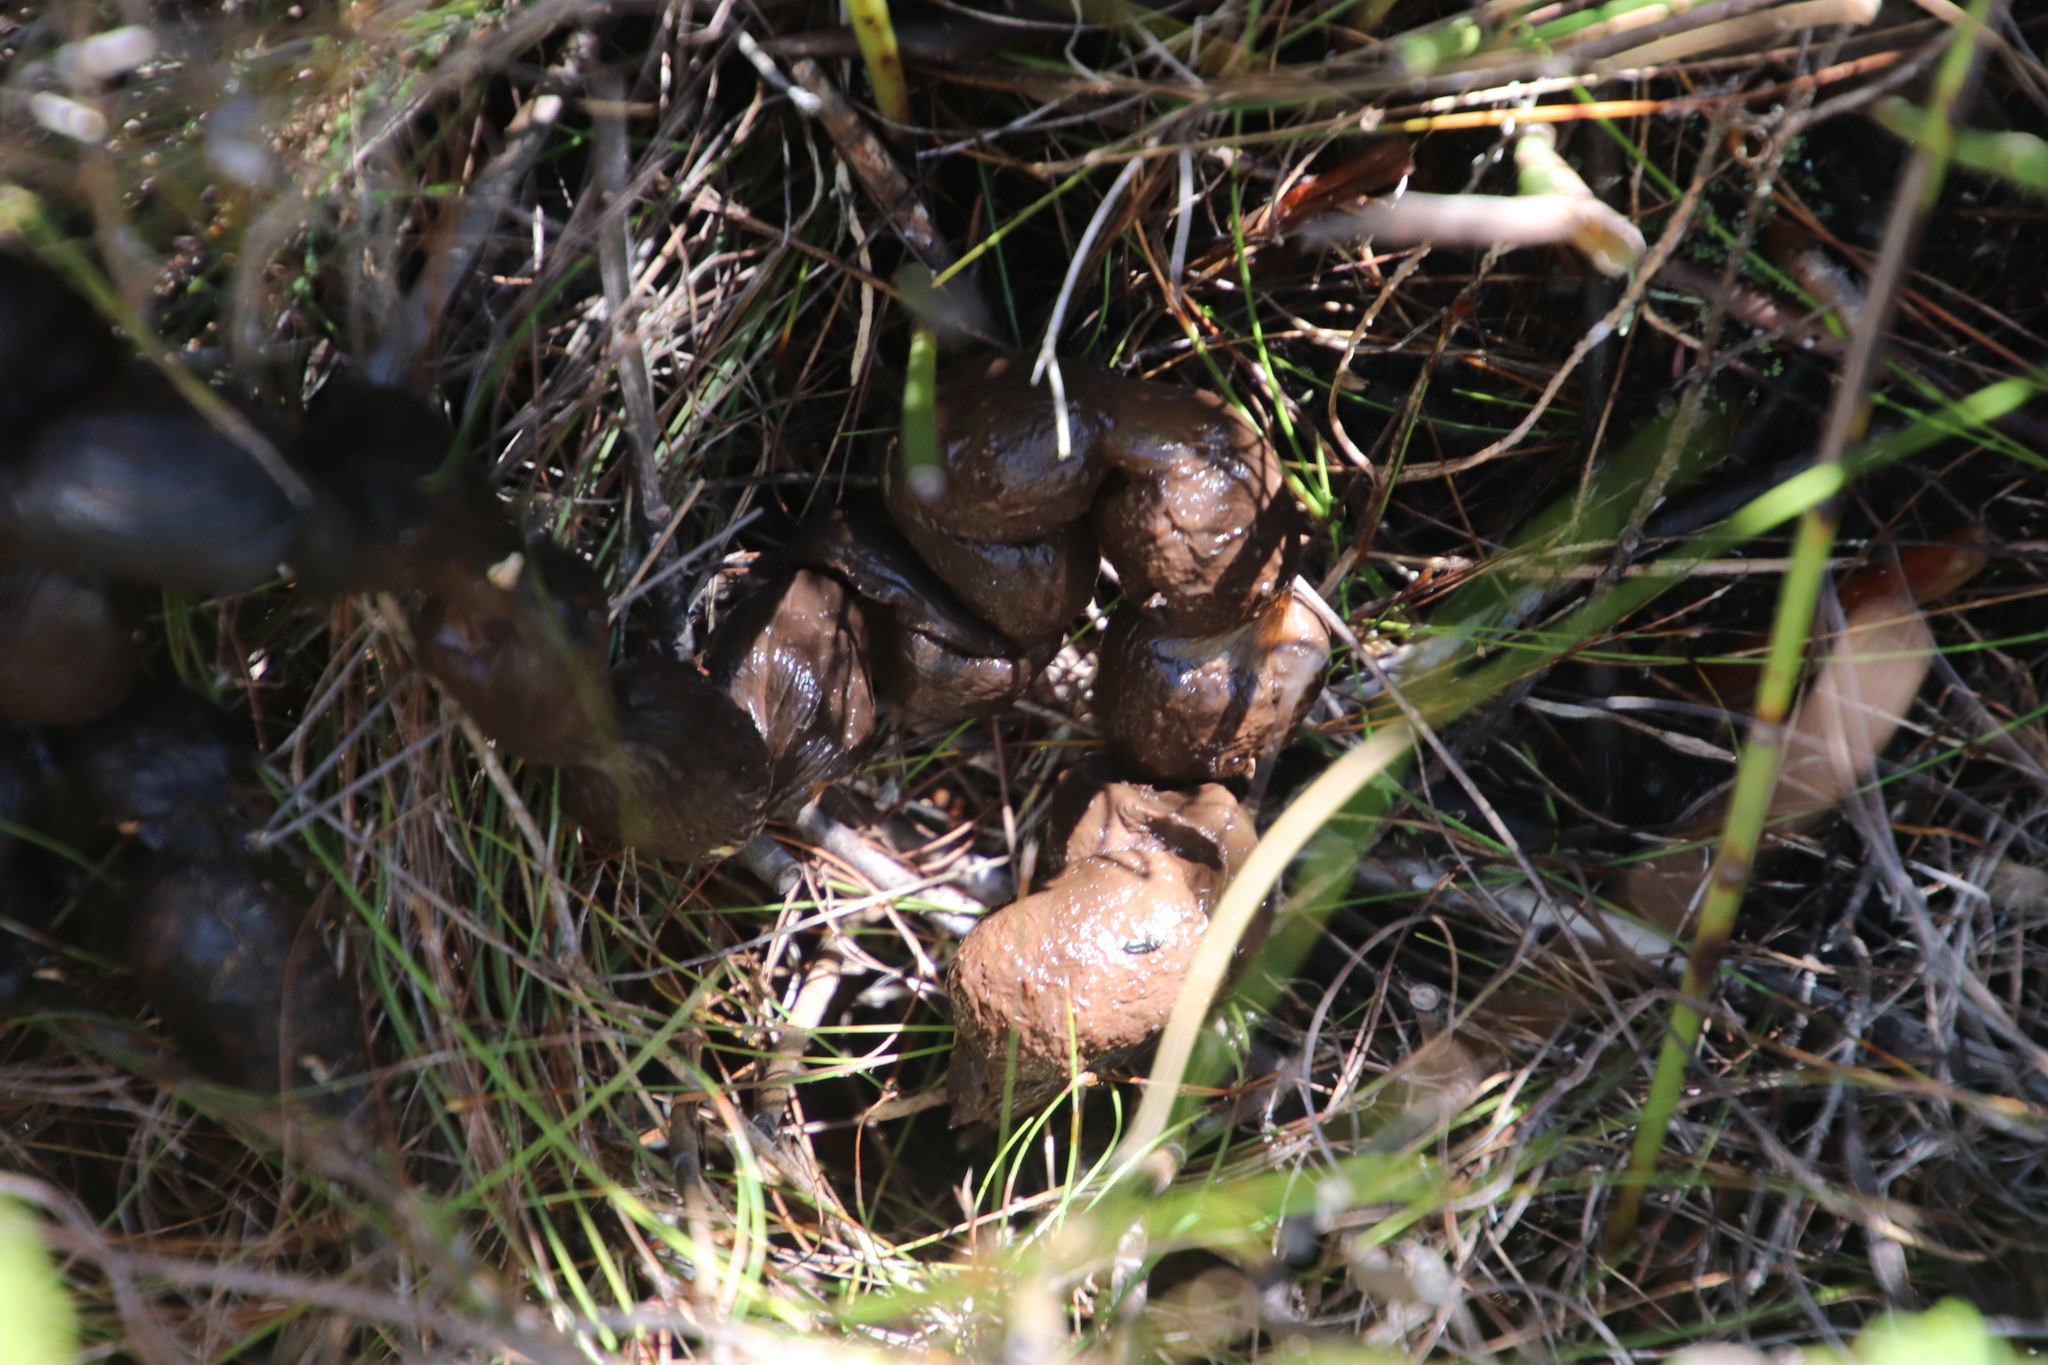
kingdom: Animalia
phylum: Chordata
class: Mammalia
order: Rodentia
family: Hystricidae
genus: Hystrix
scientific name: Hystrix africaeaustralis
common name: Cape porcupine
